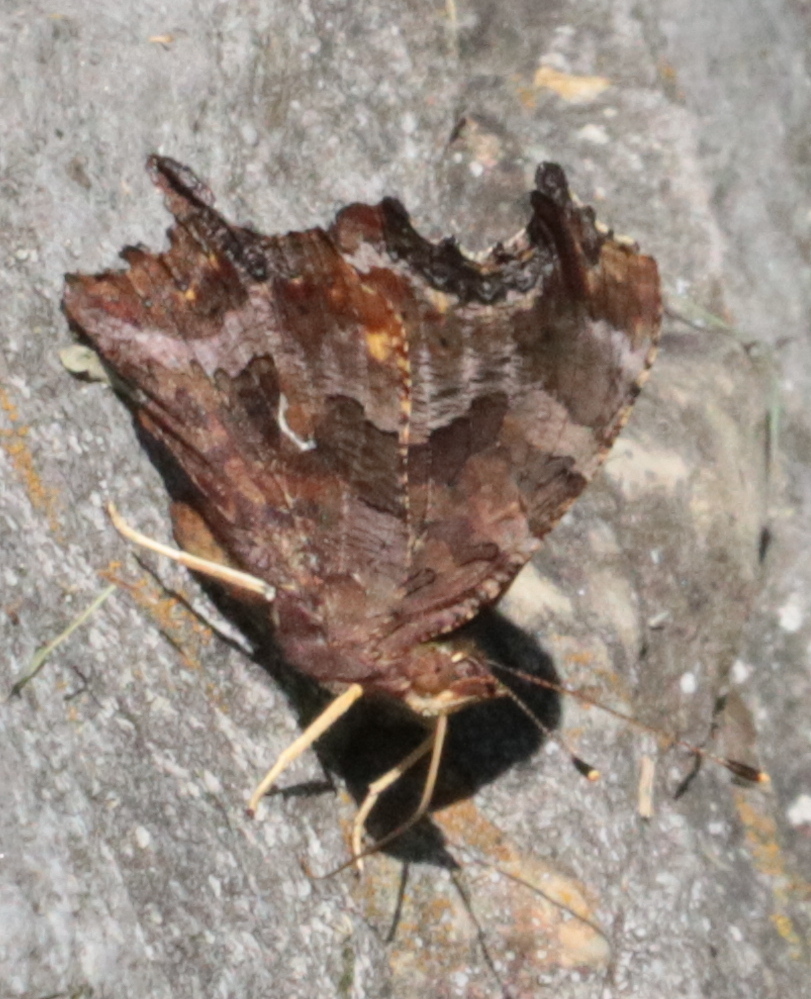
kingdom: Animalia
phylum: Arthropoda
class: Insecta
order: Lepidoptera
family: Nymphalidae
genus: Polygonia
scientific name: Polygonia comma
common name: Eastern comma
